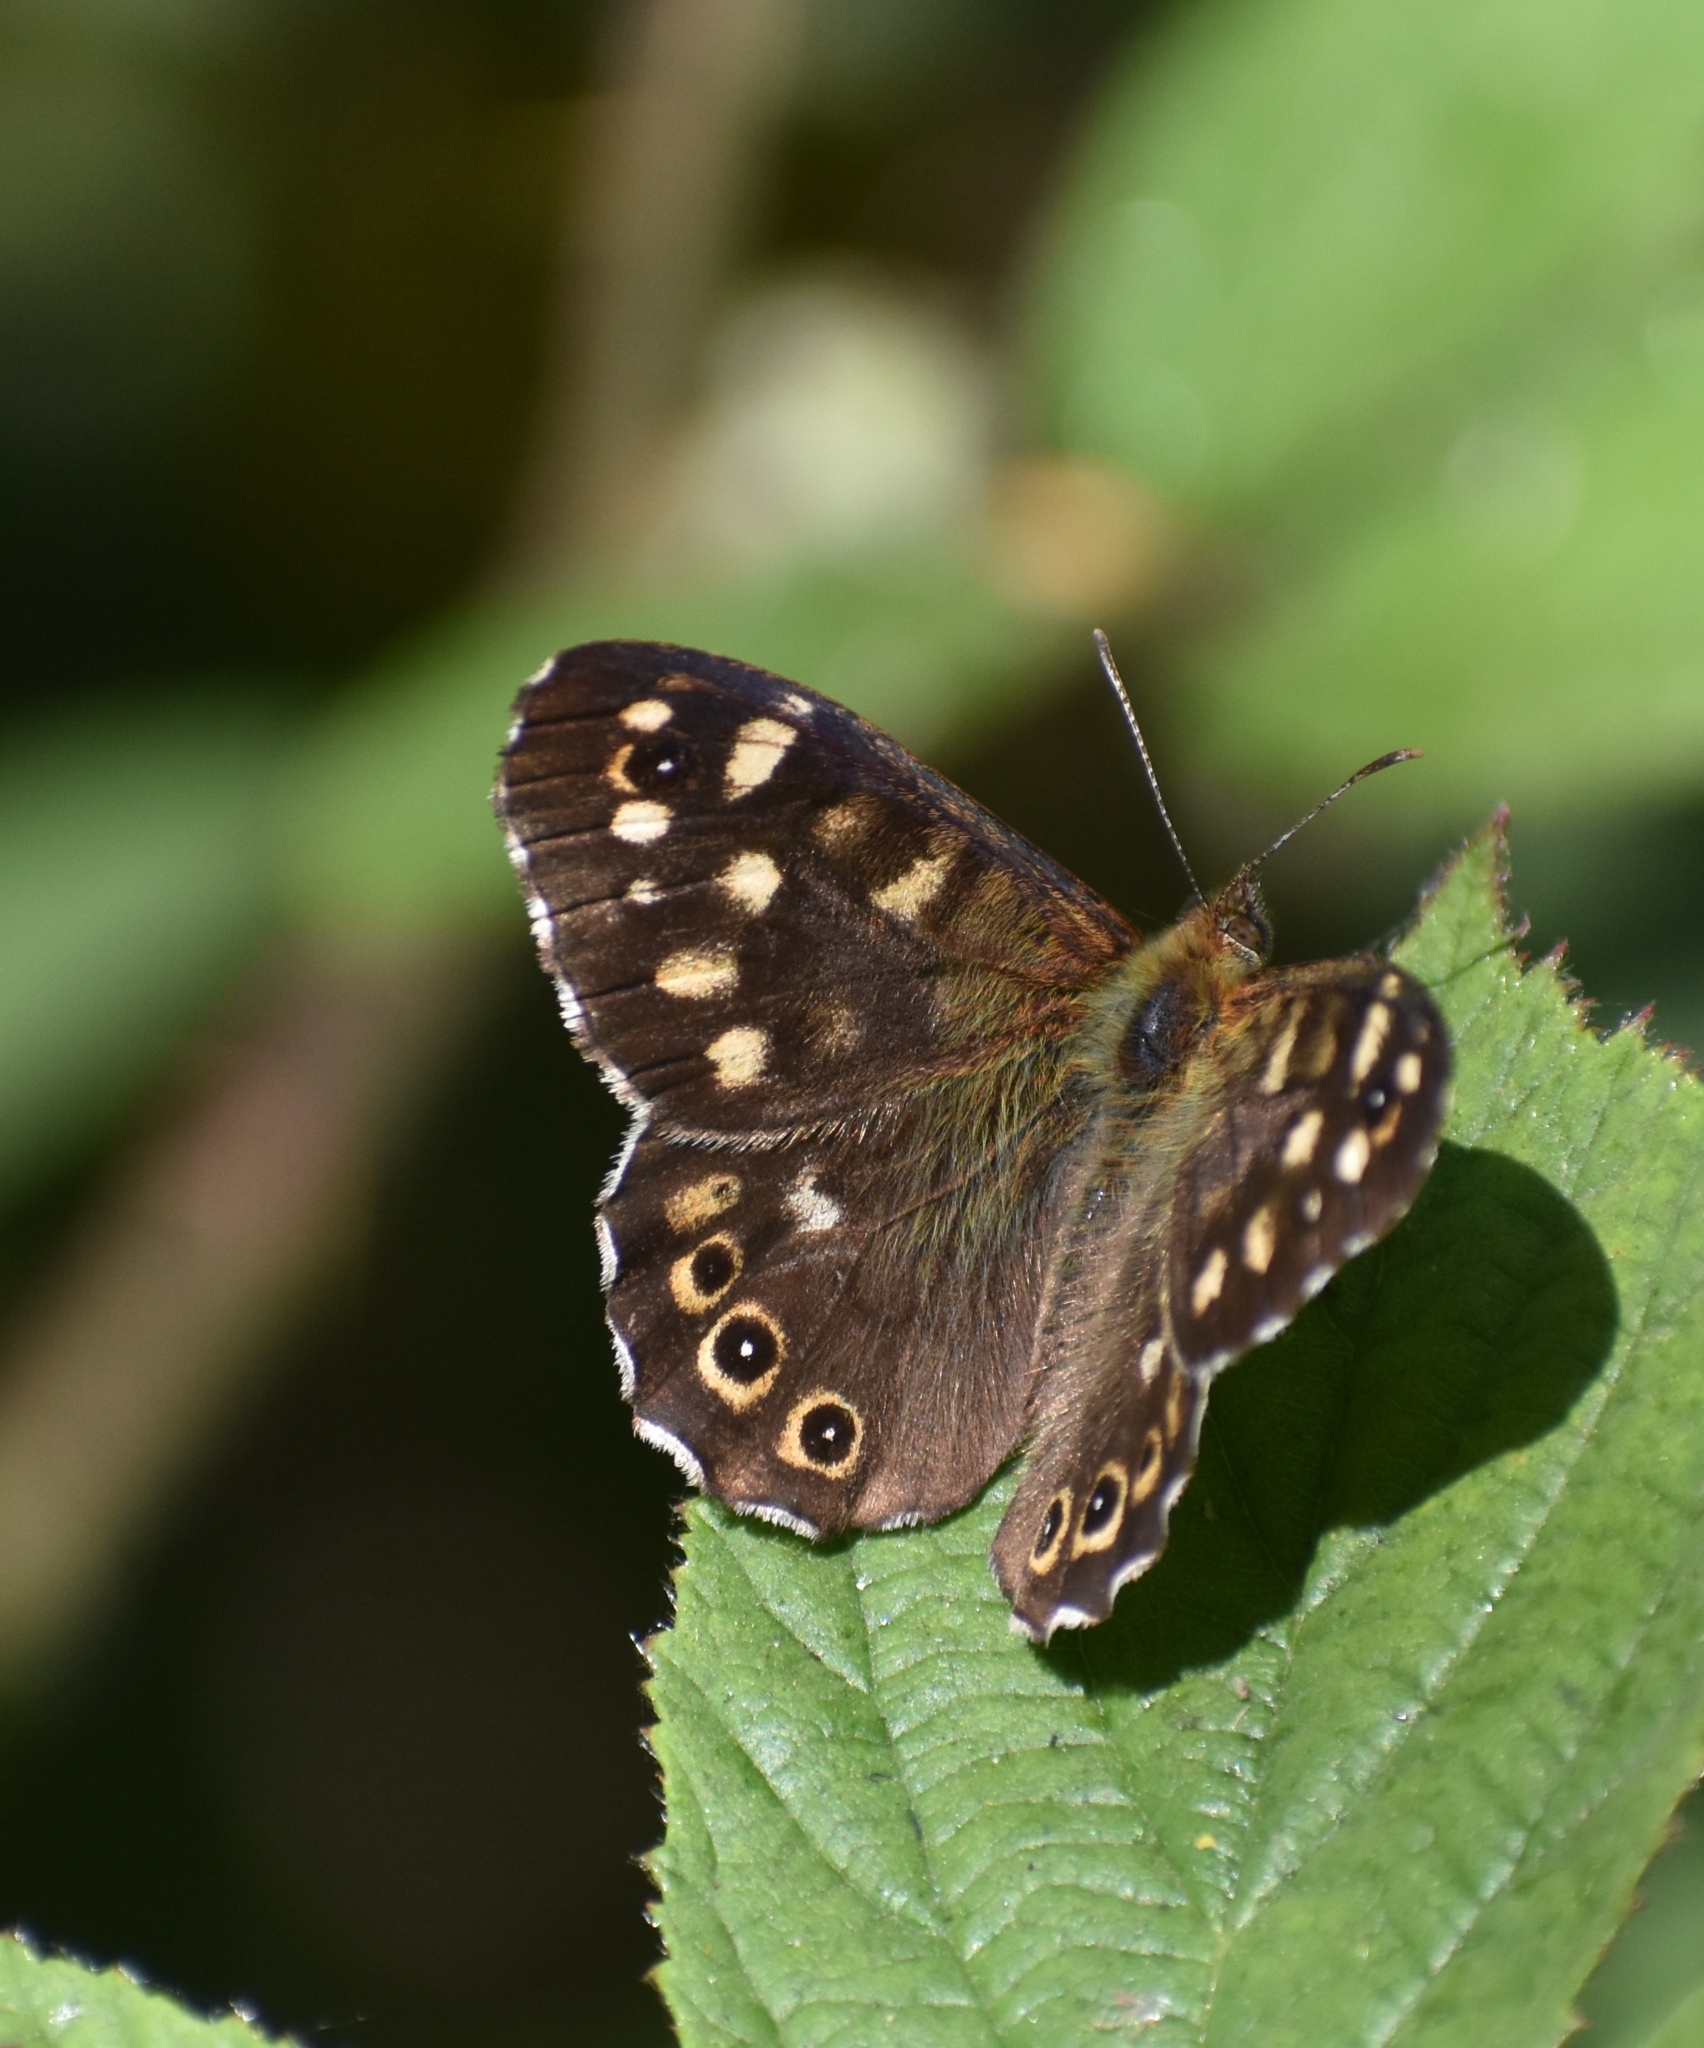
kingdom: Animalia
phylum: Arthropoda
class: Insecta
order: Lepidoptera
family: Nymphalidae
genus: Pararge
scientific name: Pararge aegeria
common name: Speckled wood
